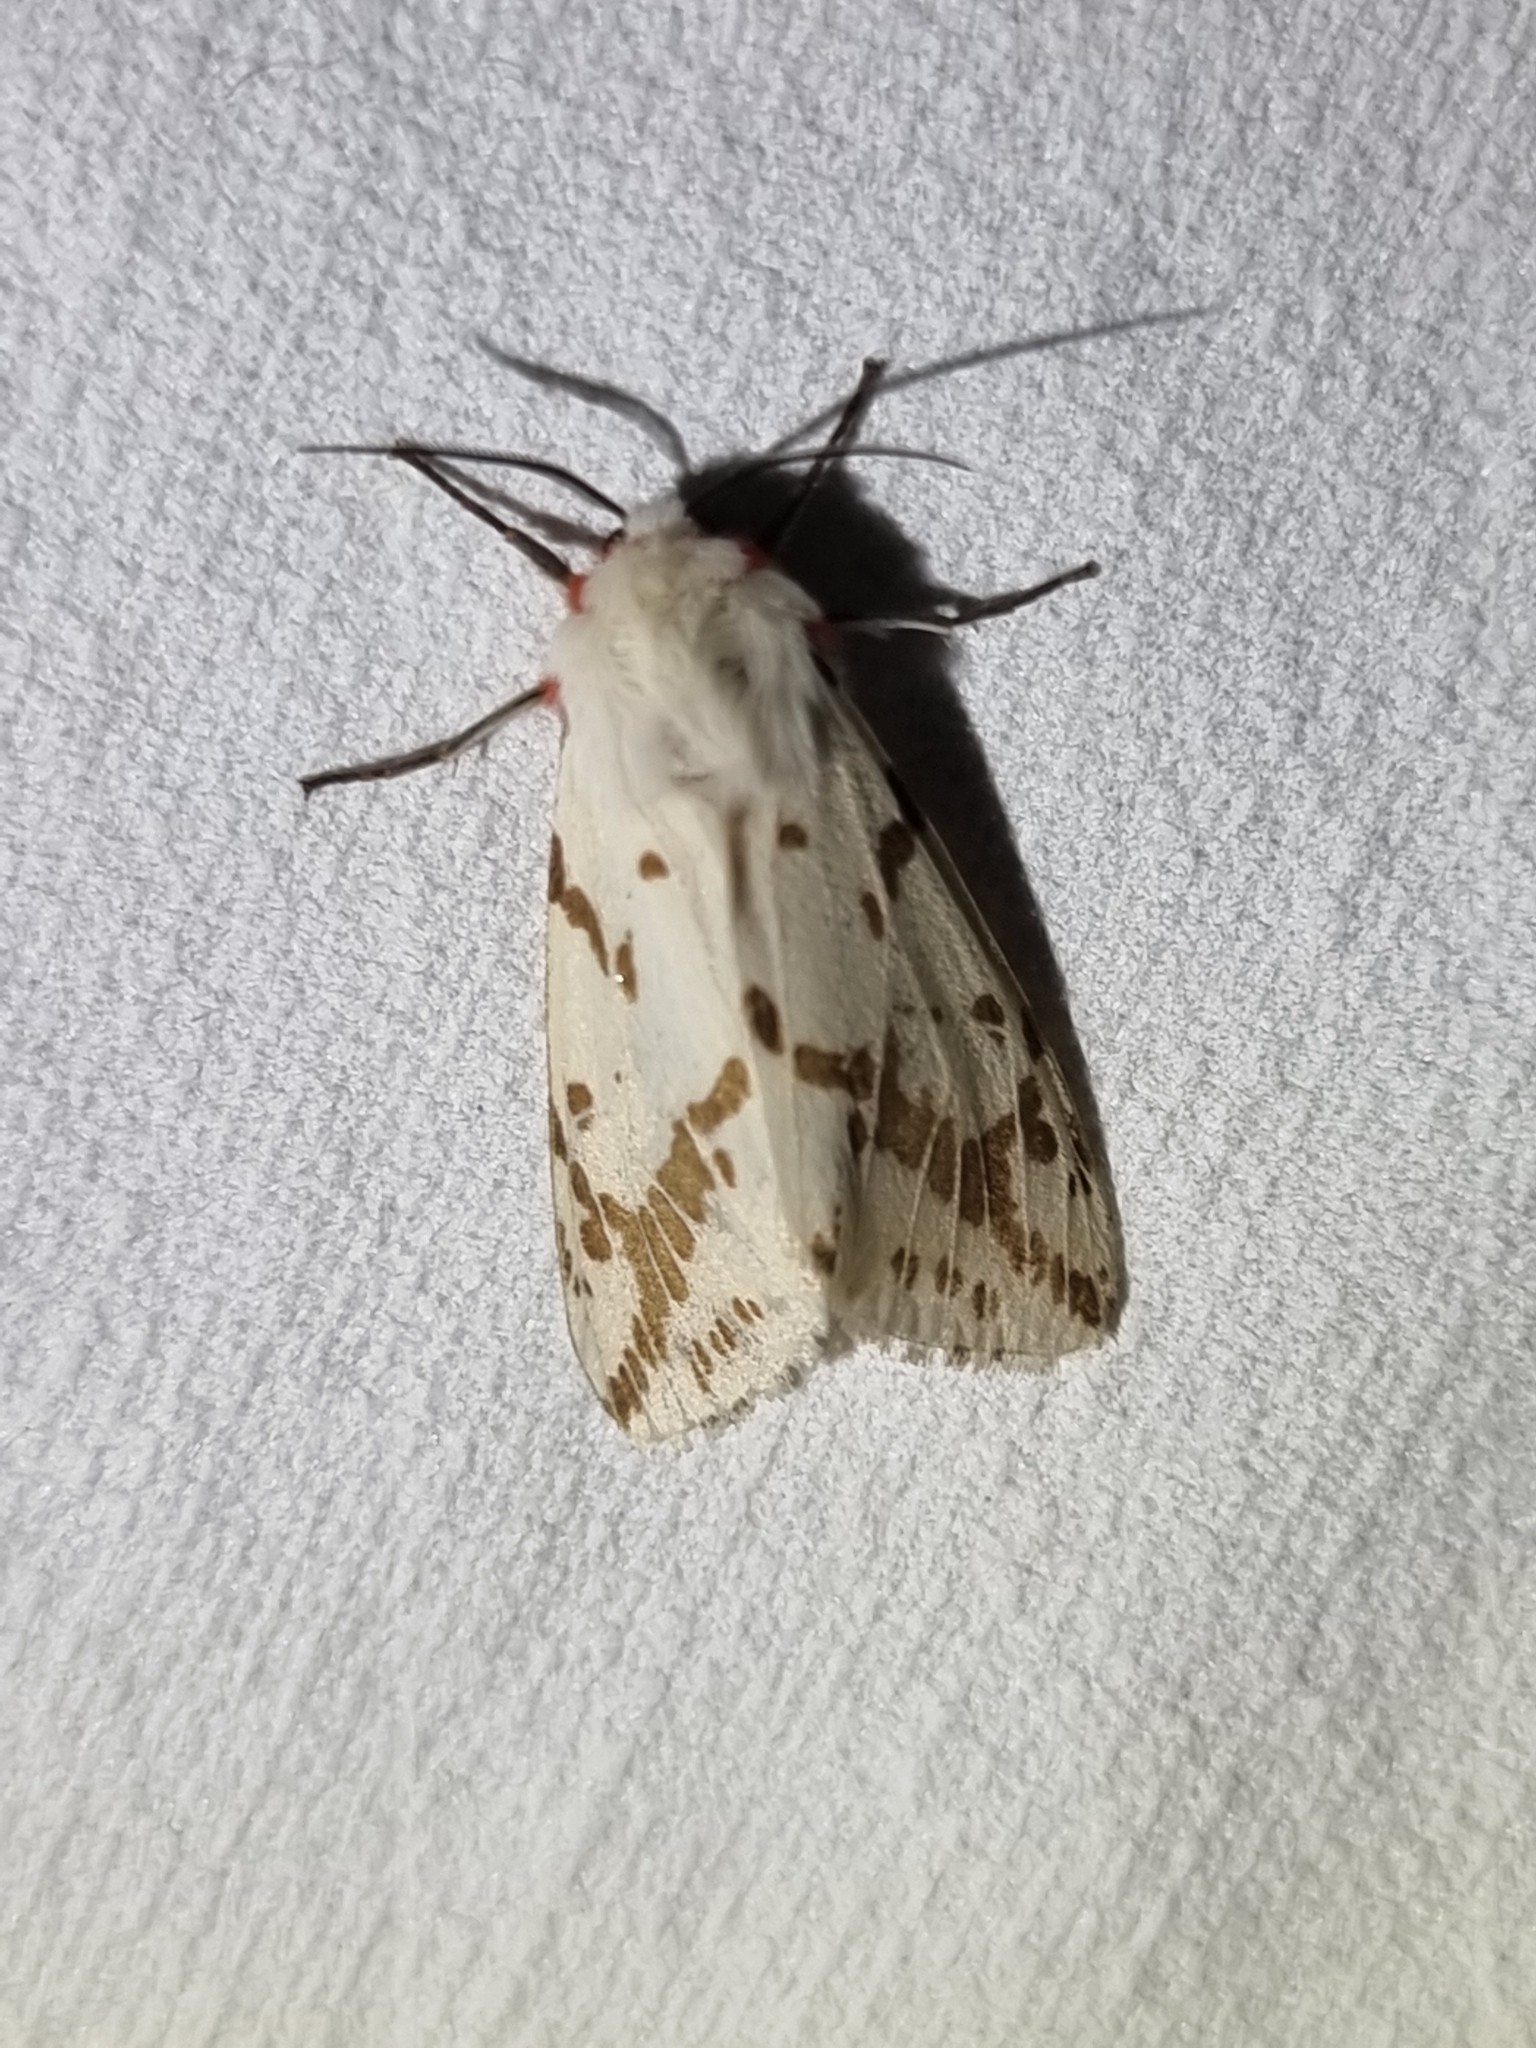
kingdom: Animalia
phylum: Arthropoda
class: Insecta
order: Lepidoptera
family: Erebidae
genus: Ardices
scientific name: Ardices canescens
